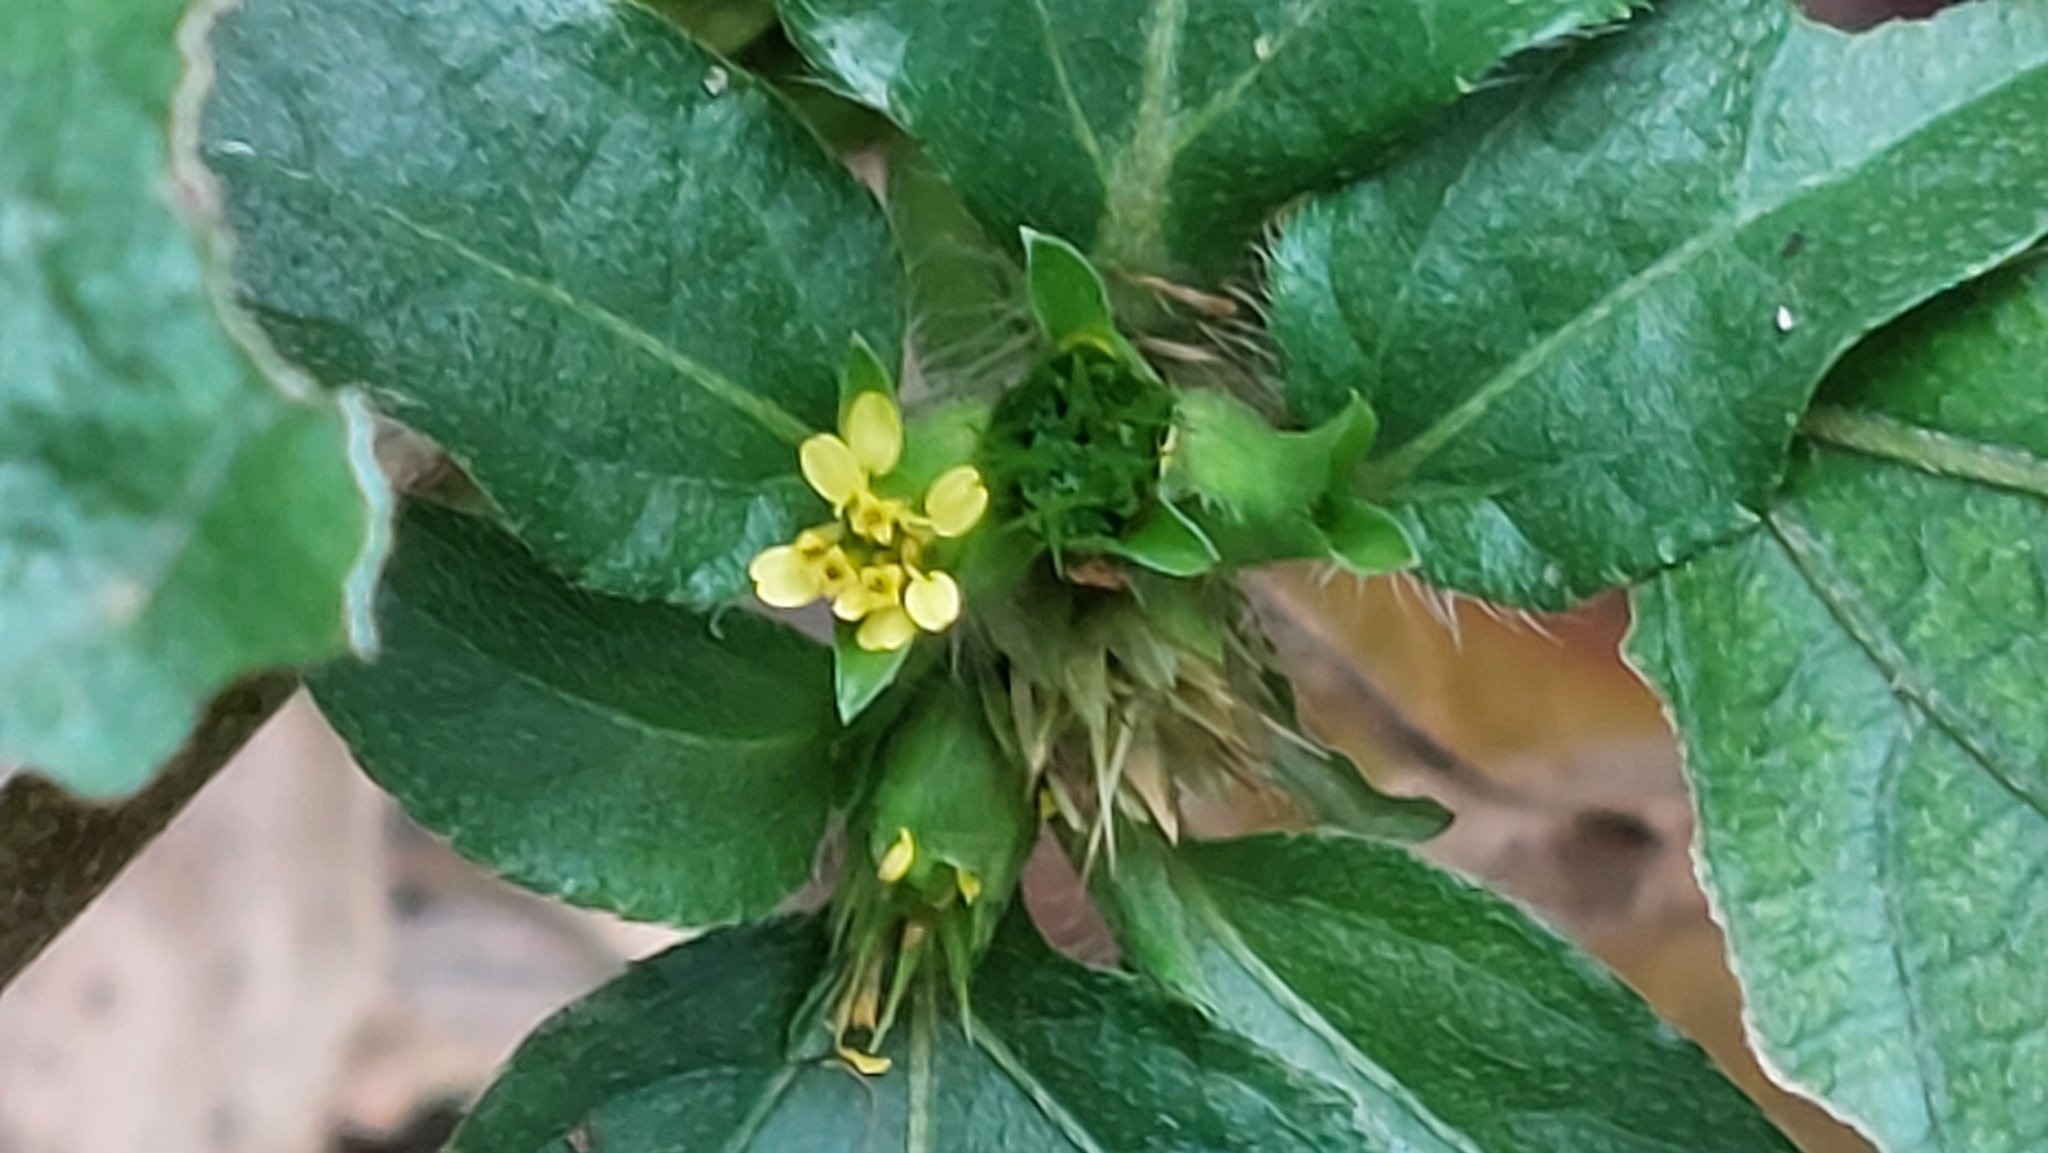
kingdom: Plantae
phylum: Tracheophyta
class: Magnoliopsida
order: Asterales
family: Asteraceae
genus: Synedrella
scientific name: Synedrella nodiflora
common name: Nodeweed
